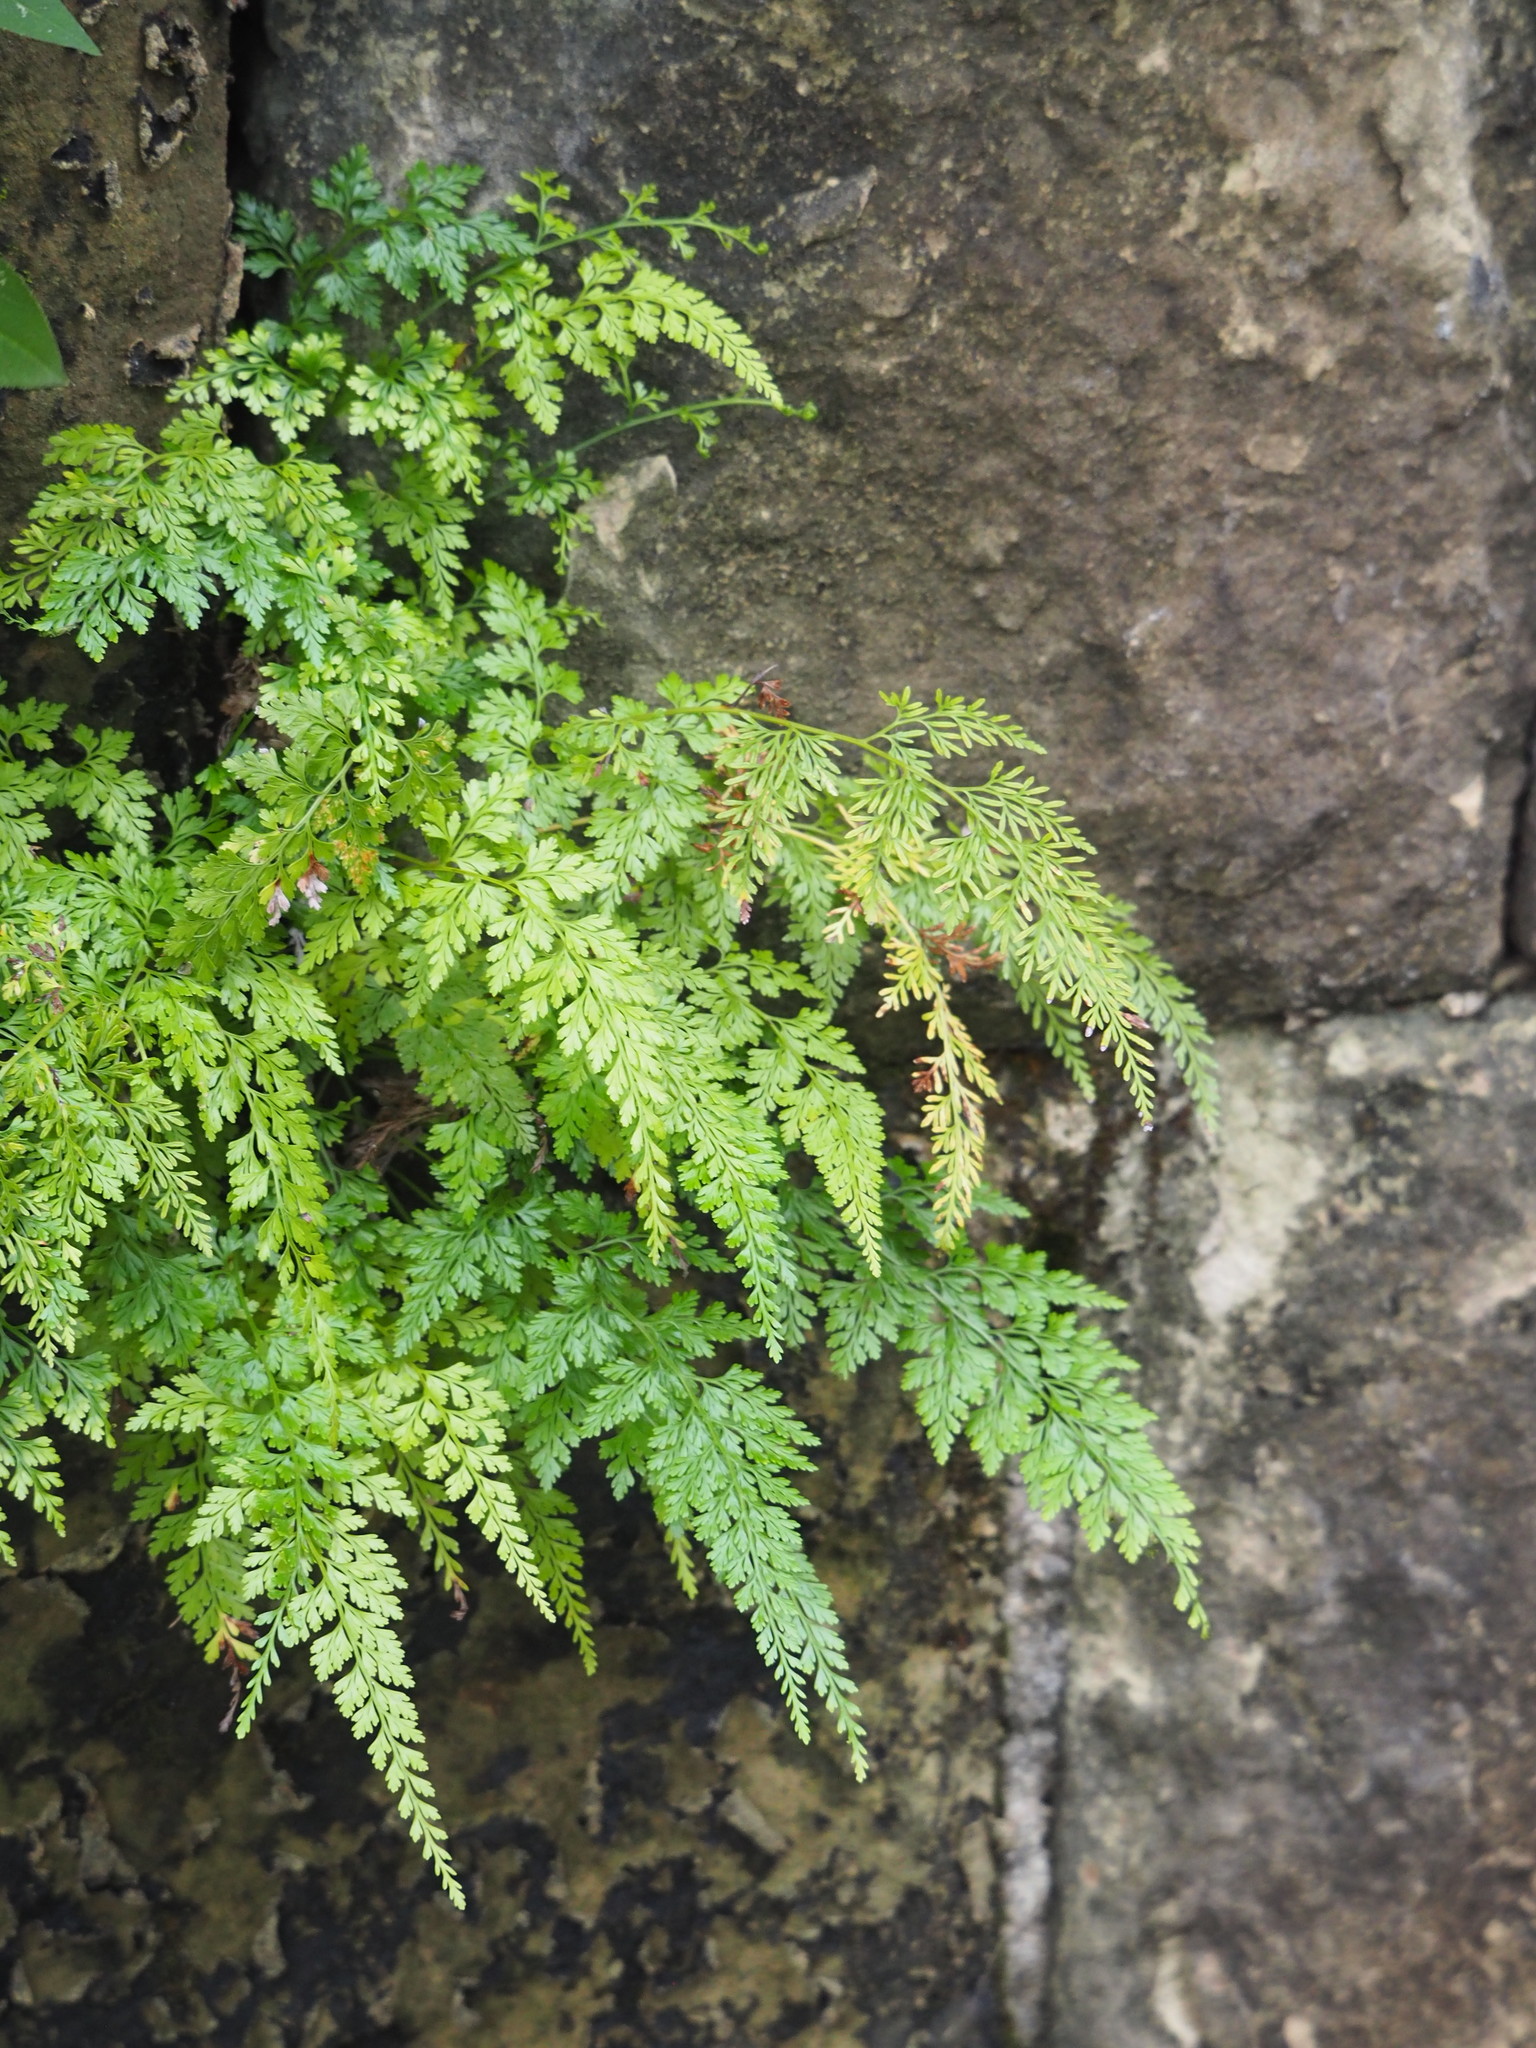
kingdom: Plantae
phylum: Tracheophyta
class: Polypodiopsida
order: Polypodiales
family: Pteridaceae
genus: Onychium
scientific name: Onychium japonicum
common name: Carrot fern
